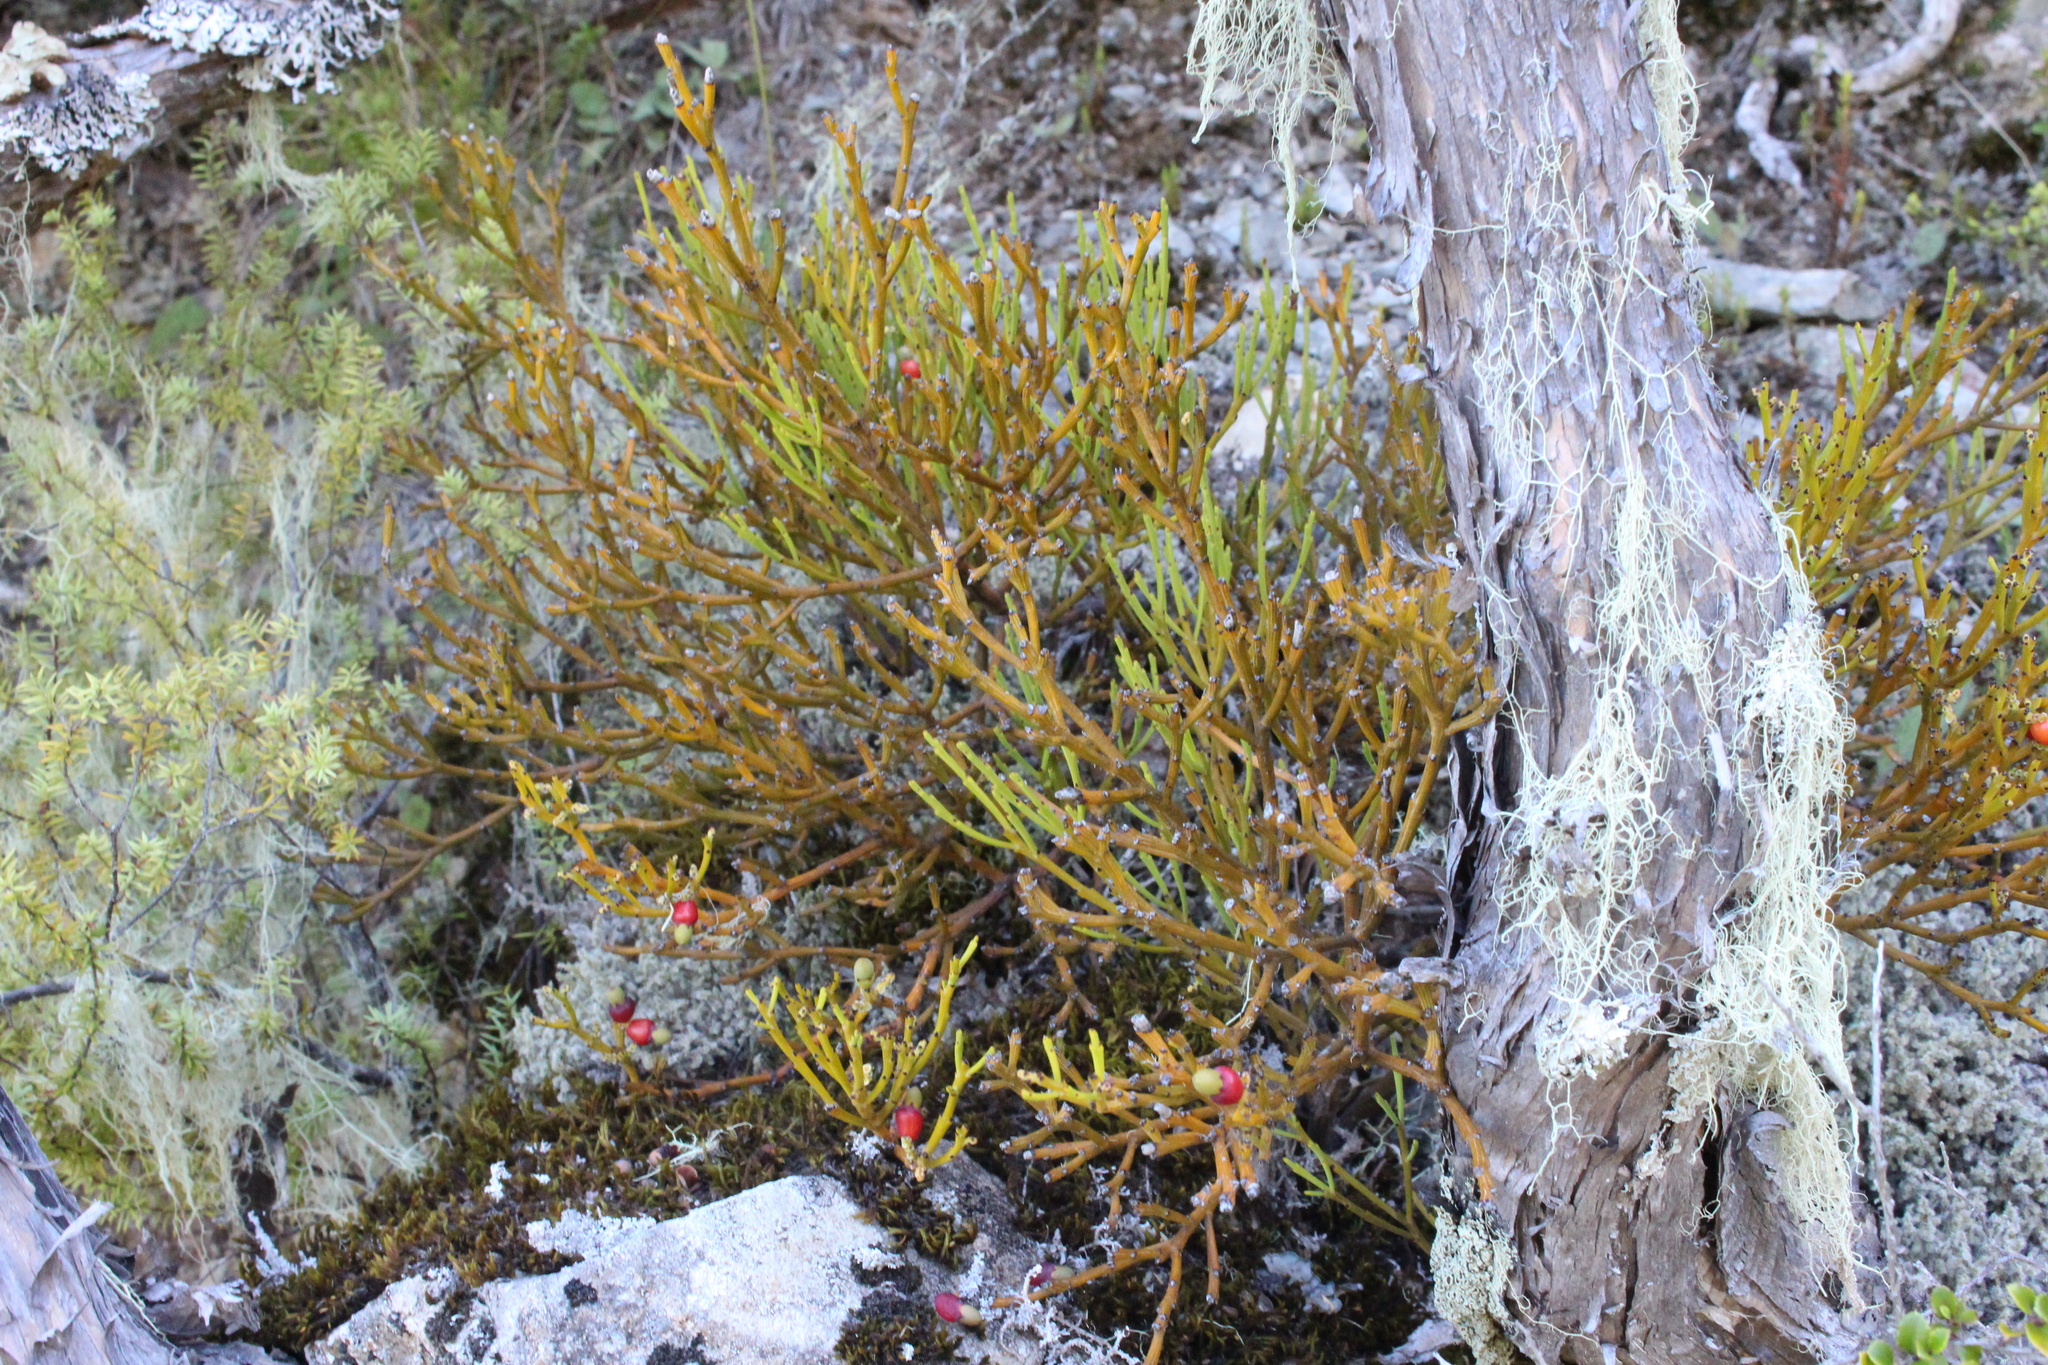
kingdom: Plantae
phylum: Tracheophyta
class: Magnoliopsida
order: Santalales
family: Santalaceae
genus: Exocarpos
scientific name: Exocarpos bidwillii
